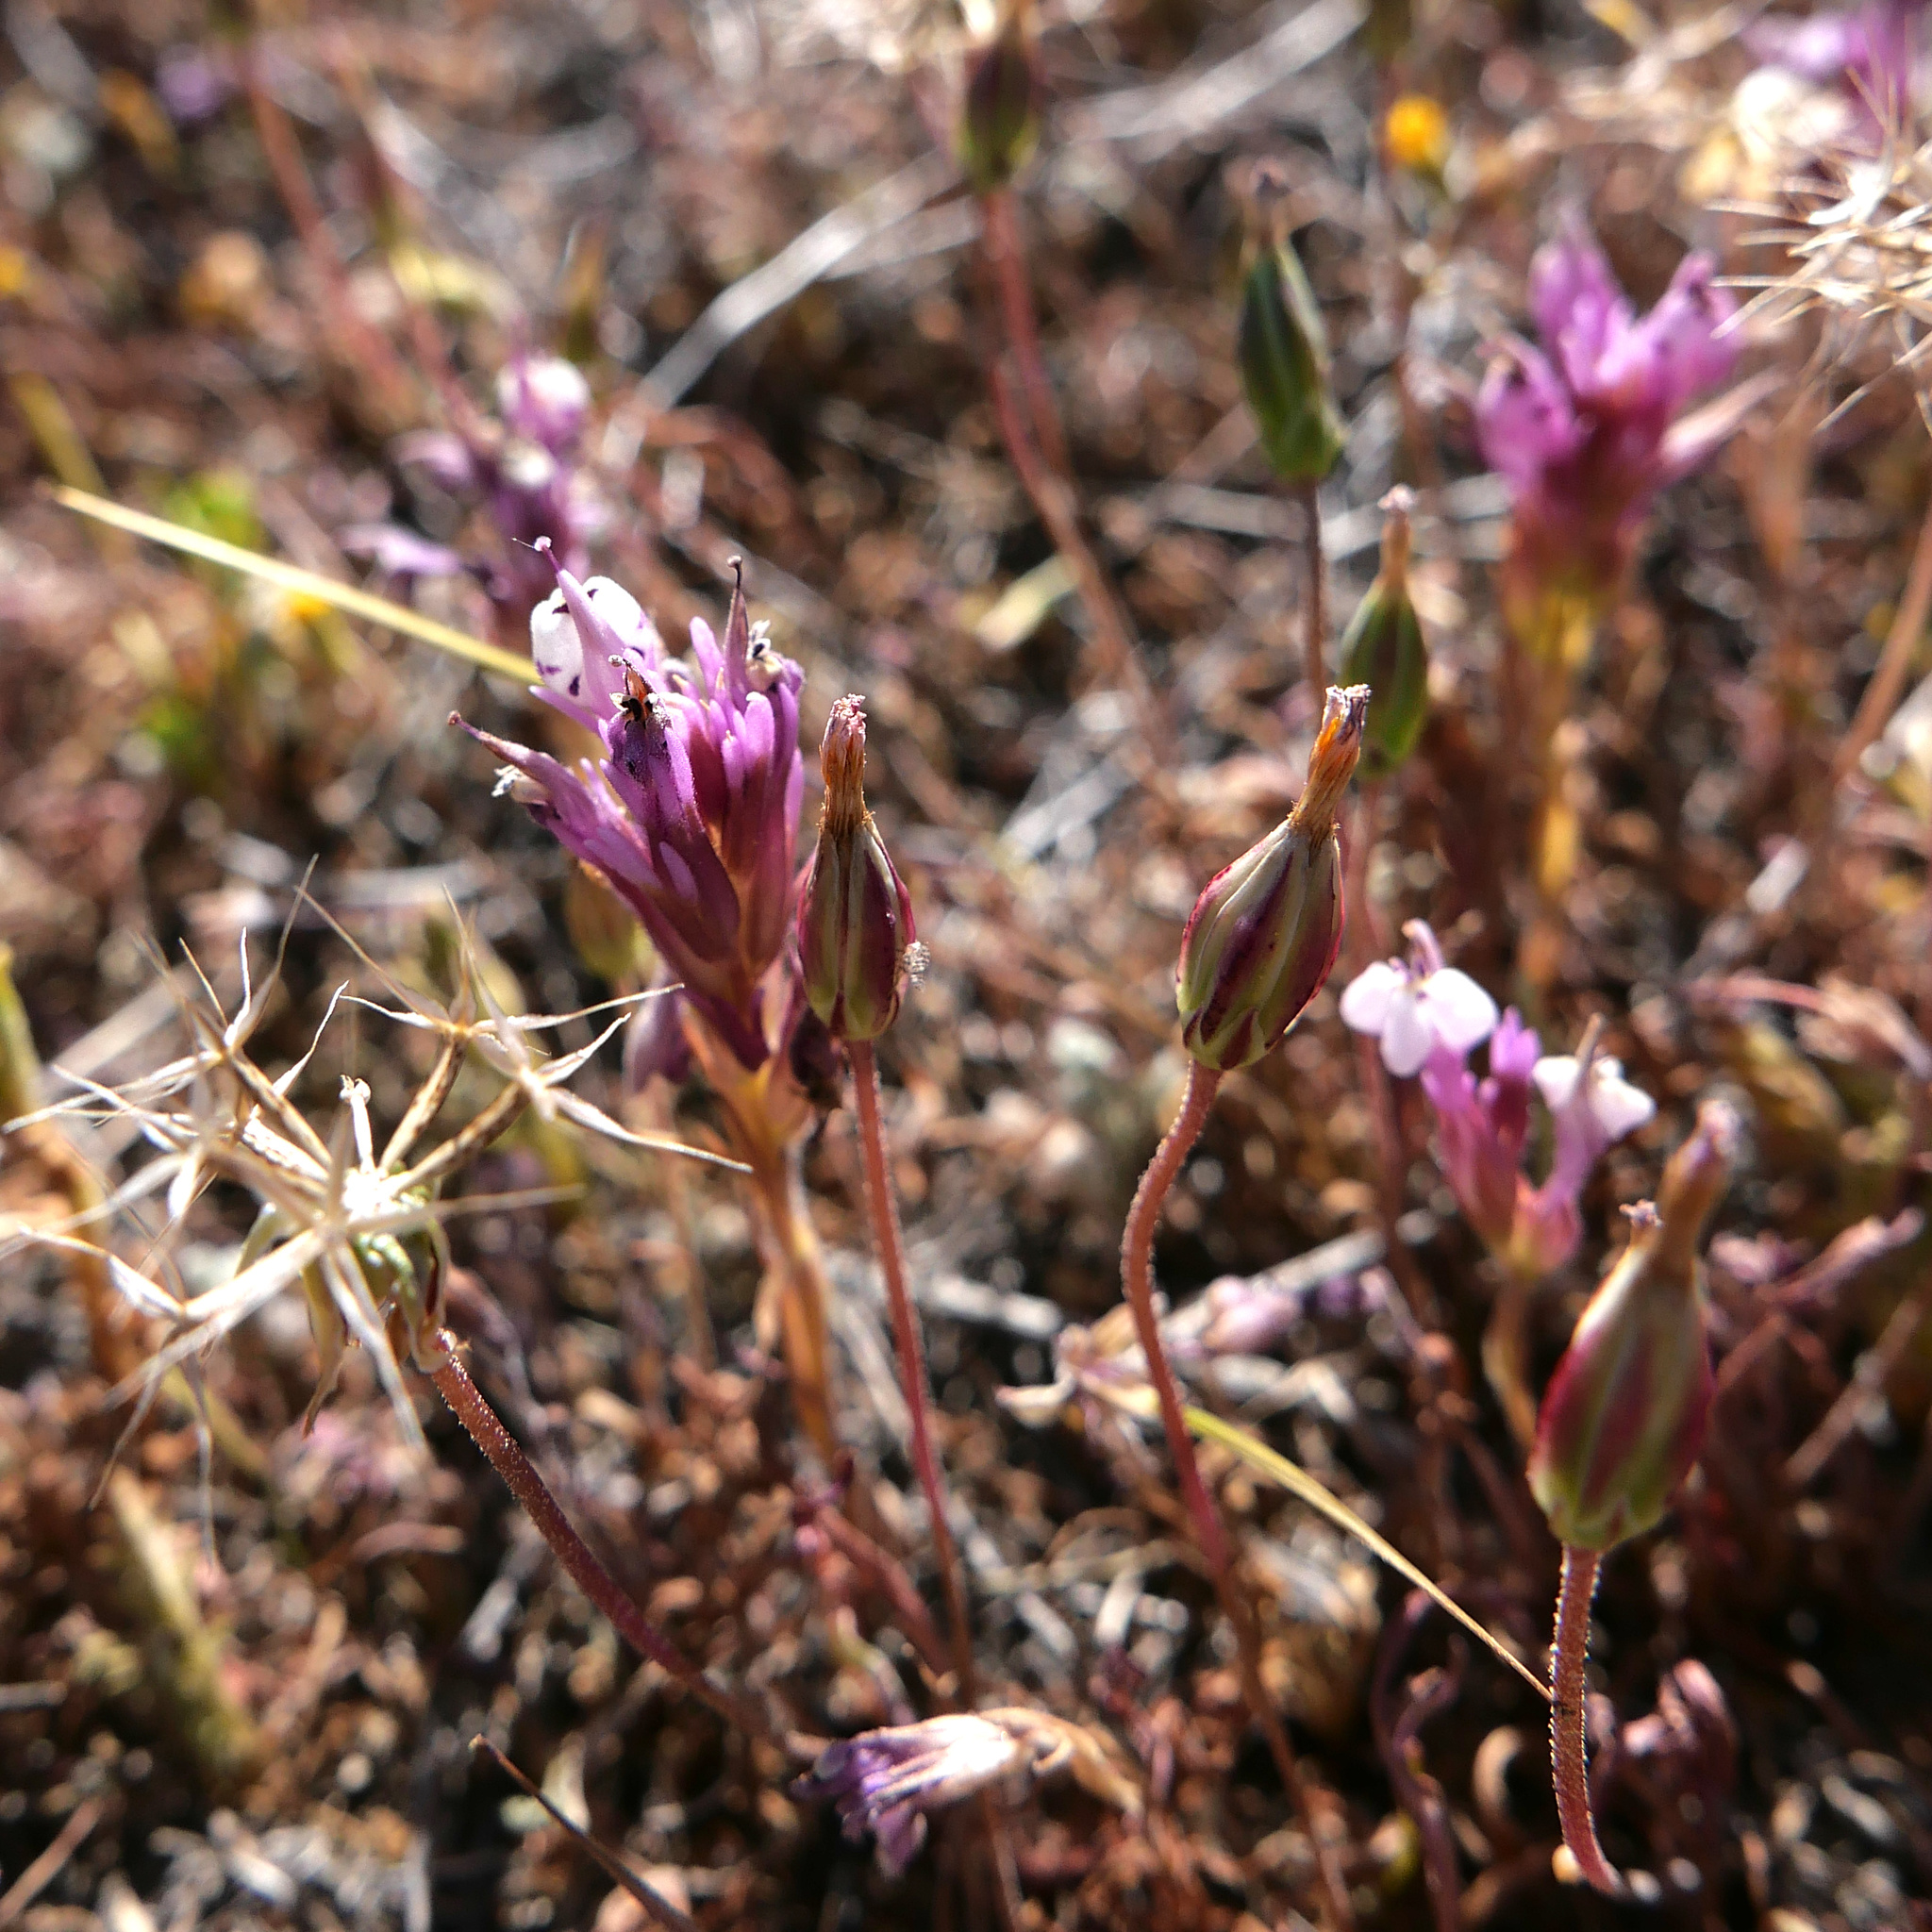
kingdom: Plantae
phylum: Tracheophyta
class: Magnoliopsida
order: Lamiales
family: Orobanchaceae
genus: Castilleja
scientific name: Castilleja densiflora
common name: Dense-flower indian paintbrush
